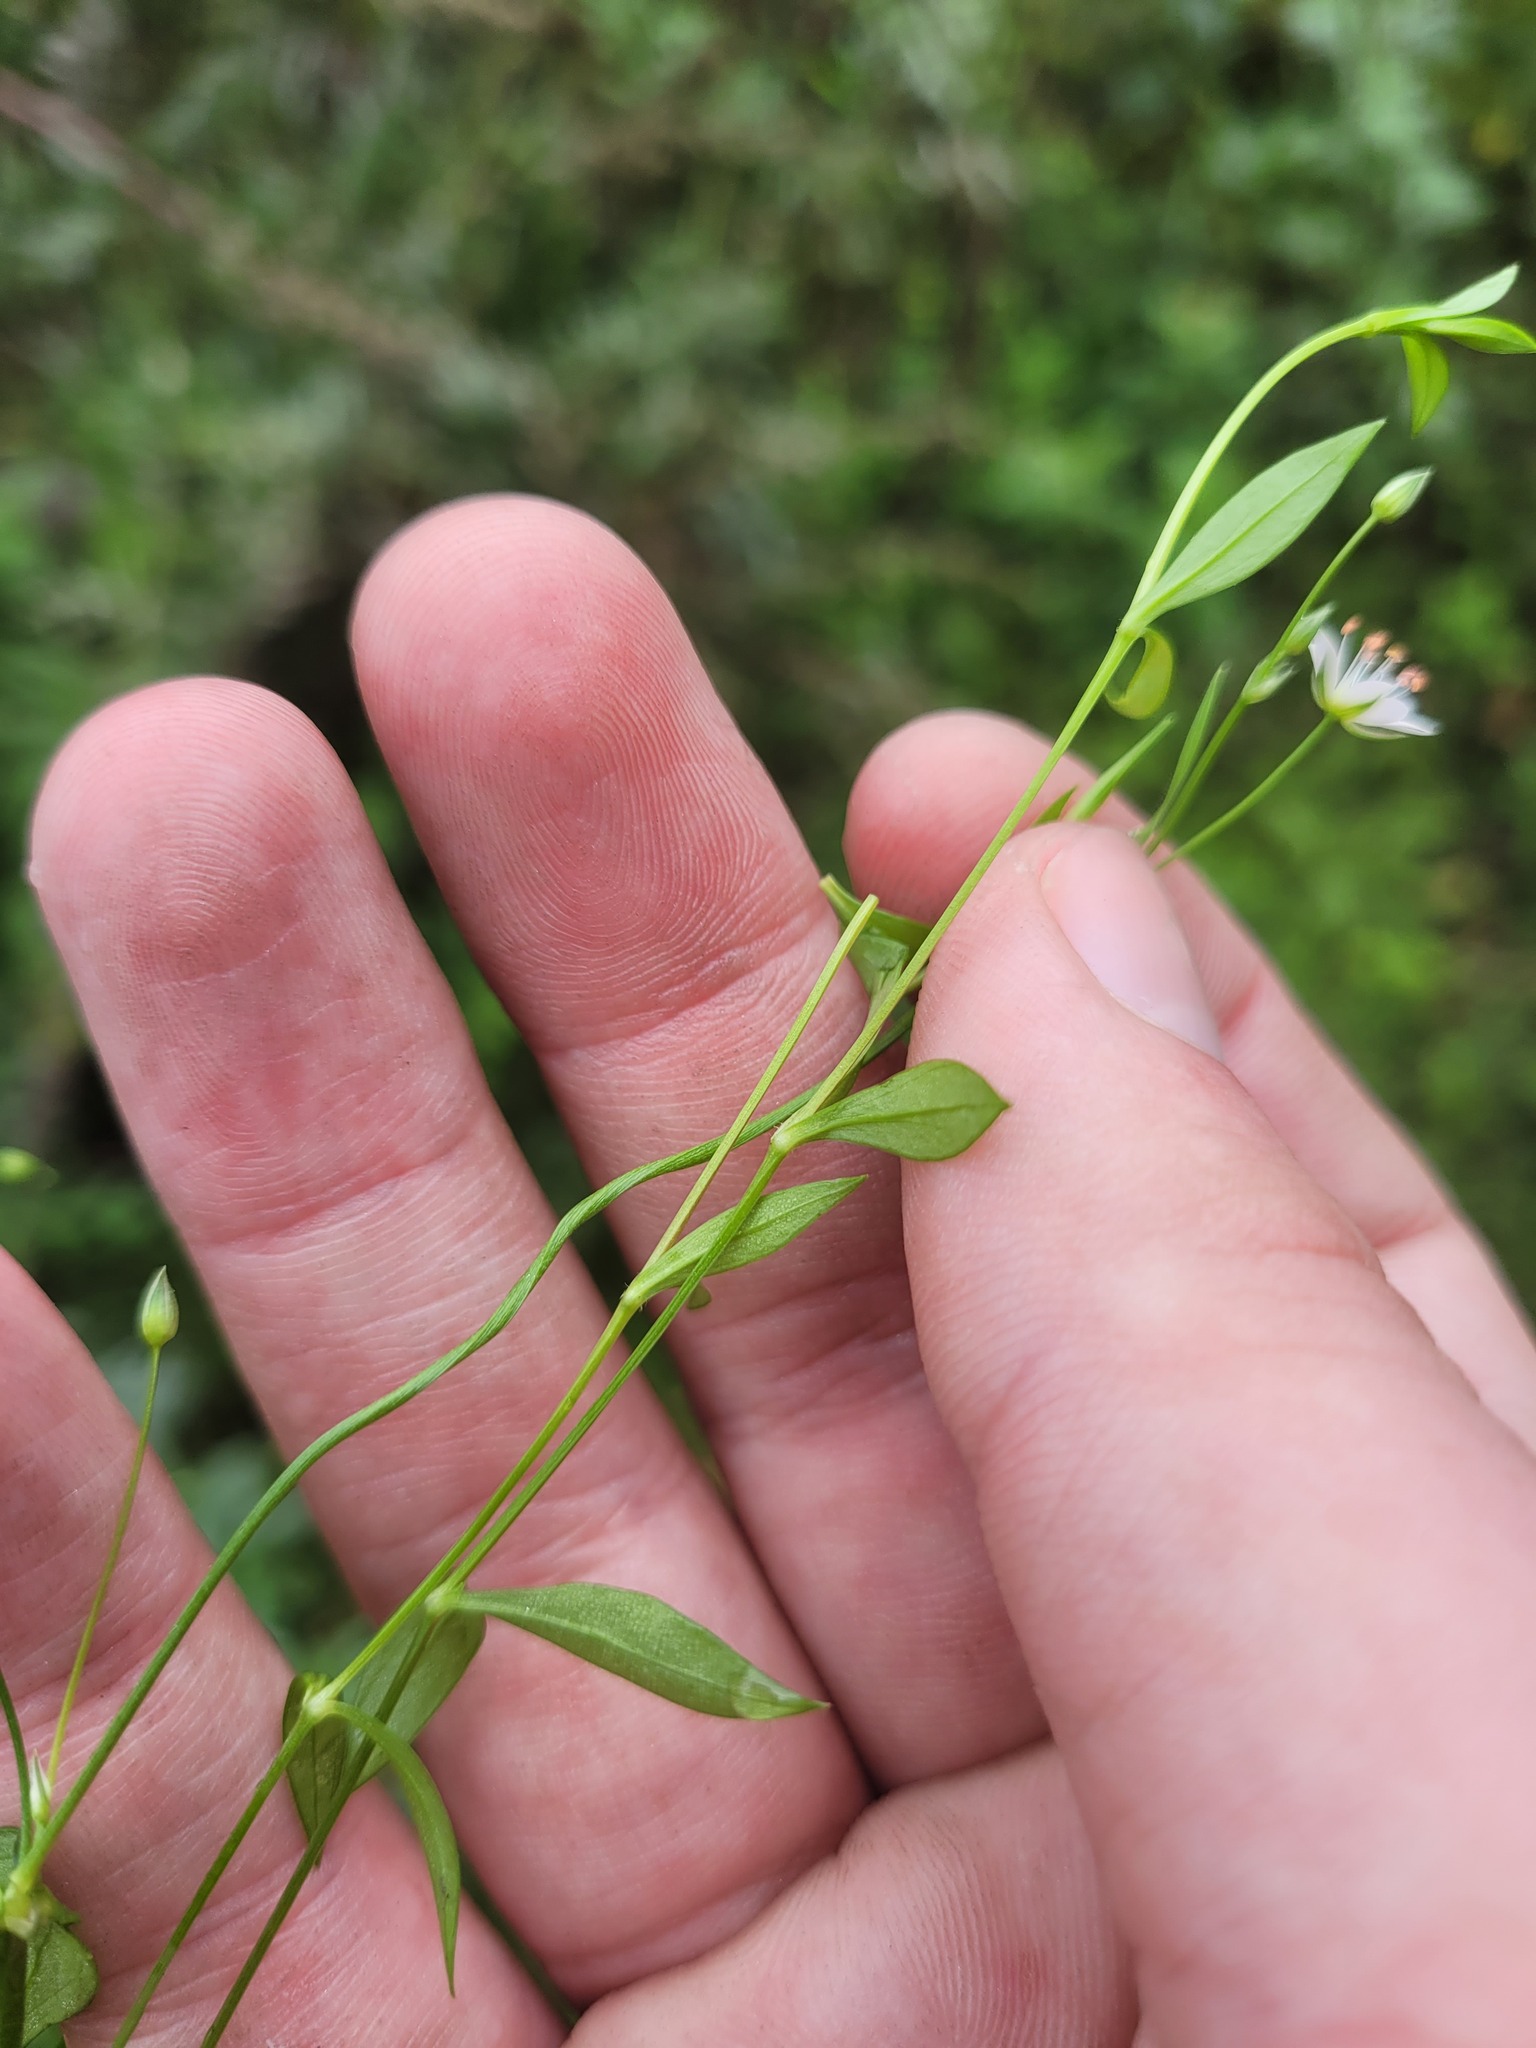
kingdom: Plantae
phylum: Tracheophyta
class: Magnoliopsida
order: Caryophyllales
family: Caryophyllaceae
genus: Stellaria
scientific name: Stellaria graminea
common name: Grass-like starwort
